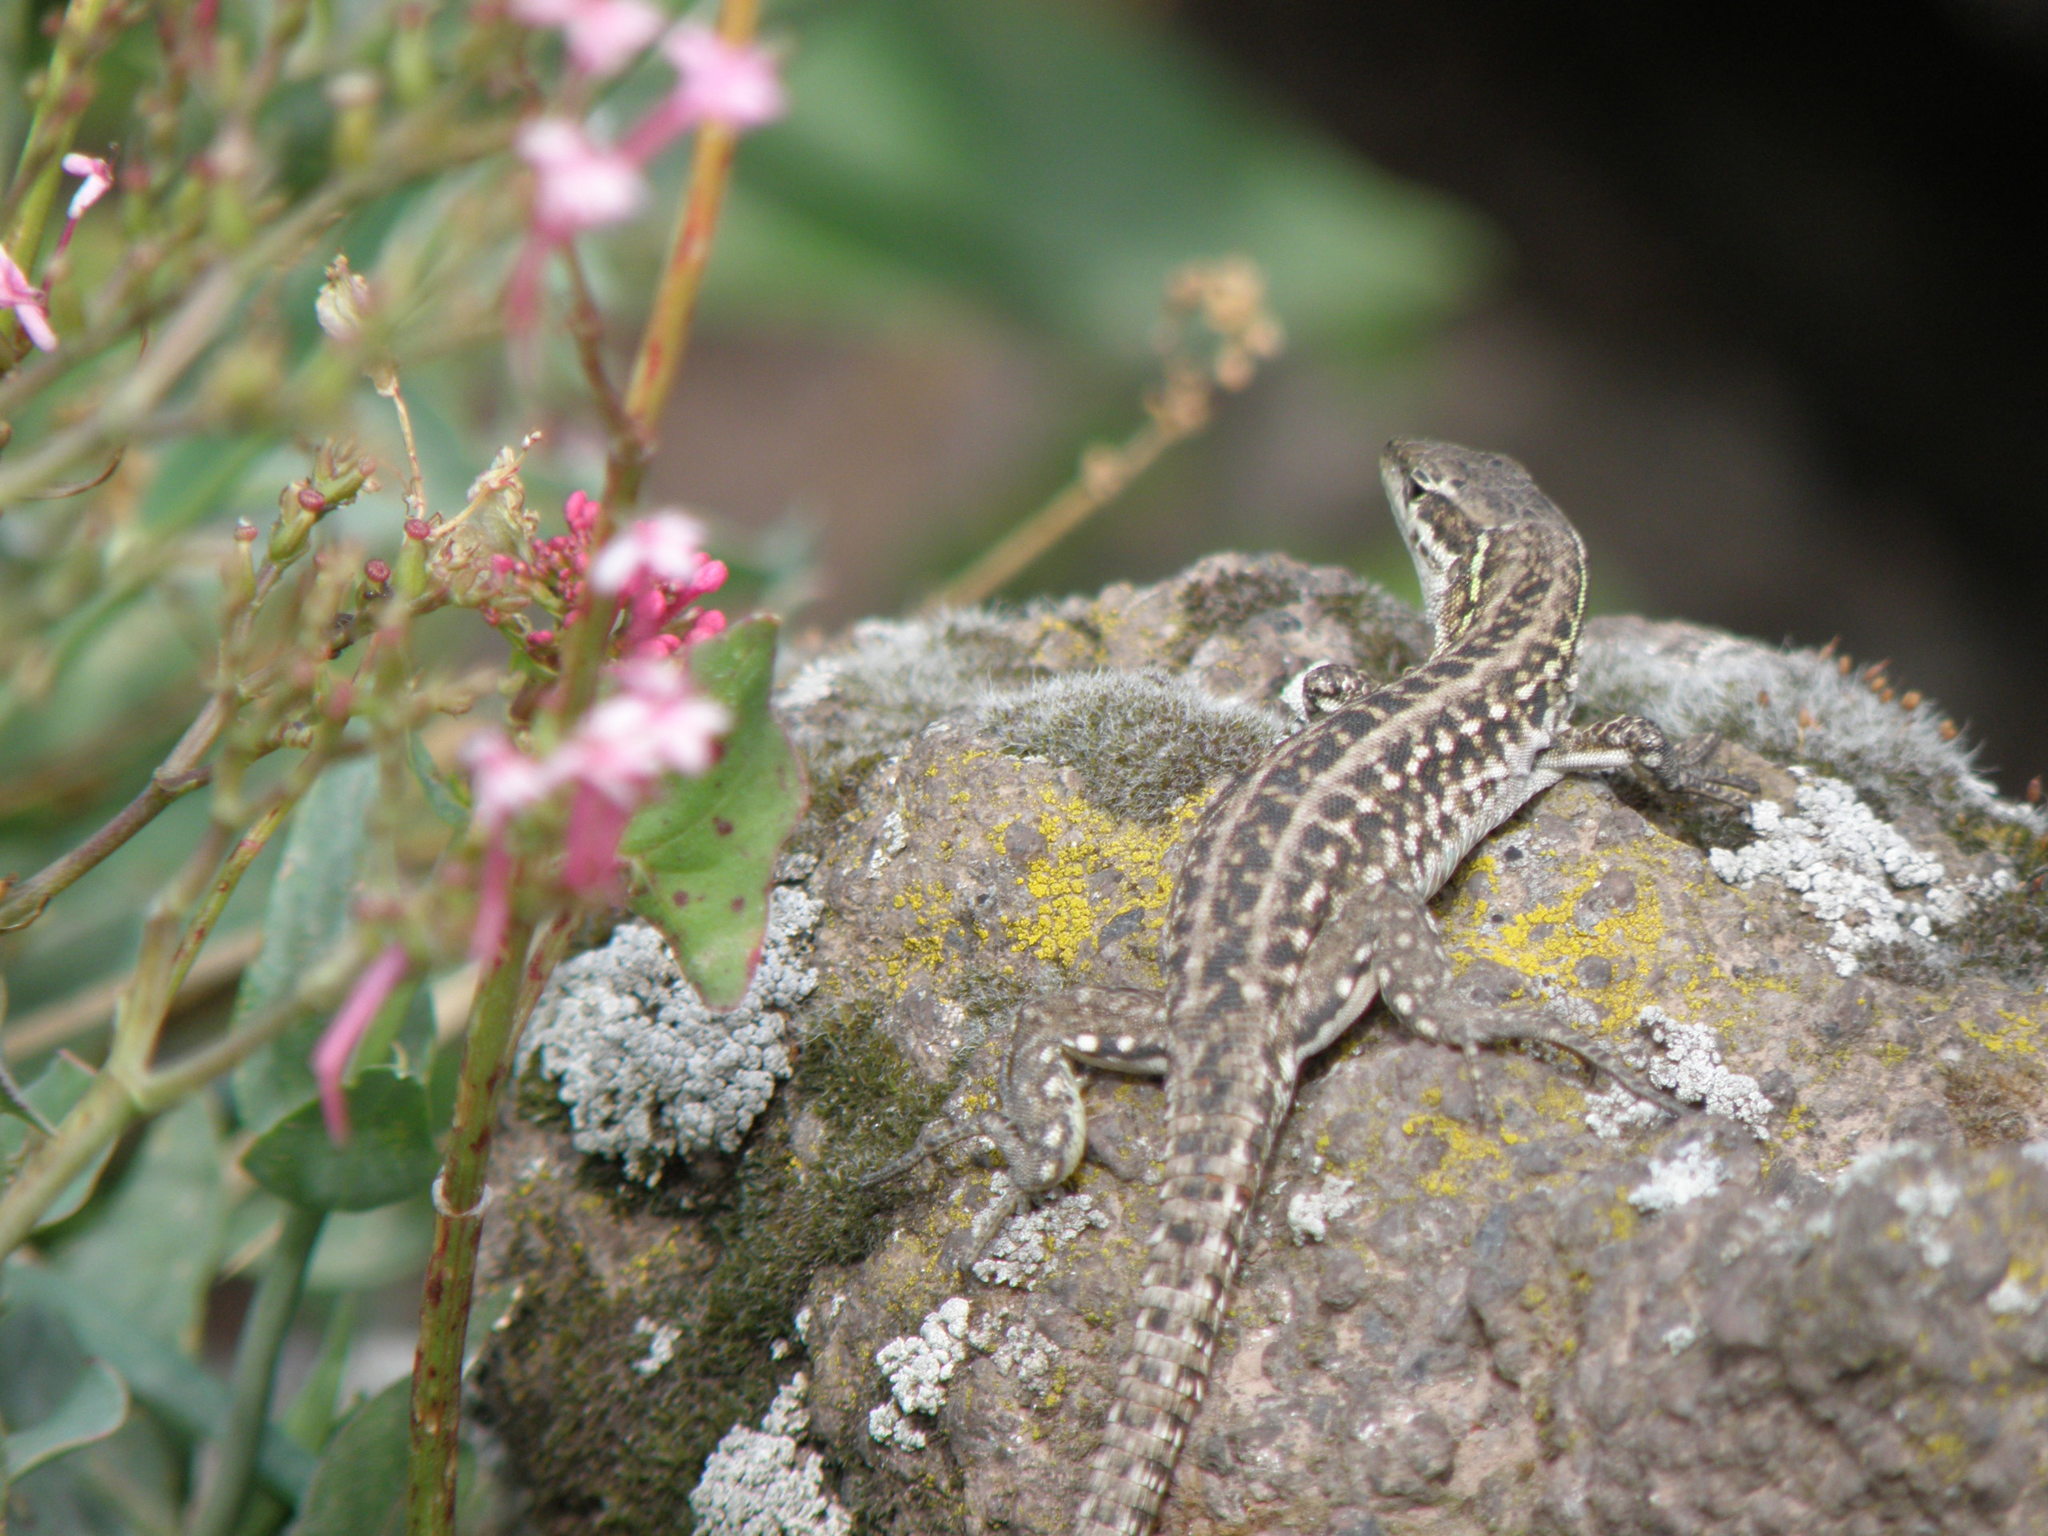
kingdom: Animalia
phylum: Chordata
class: Squamata
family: Lacertidae
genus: Podarcis
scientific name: Podarcis siculus
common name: Italian wall lizard
